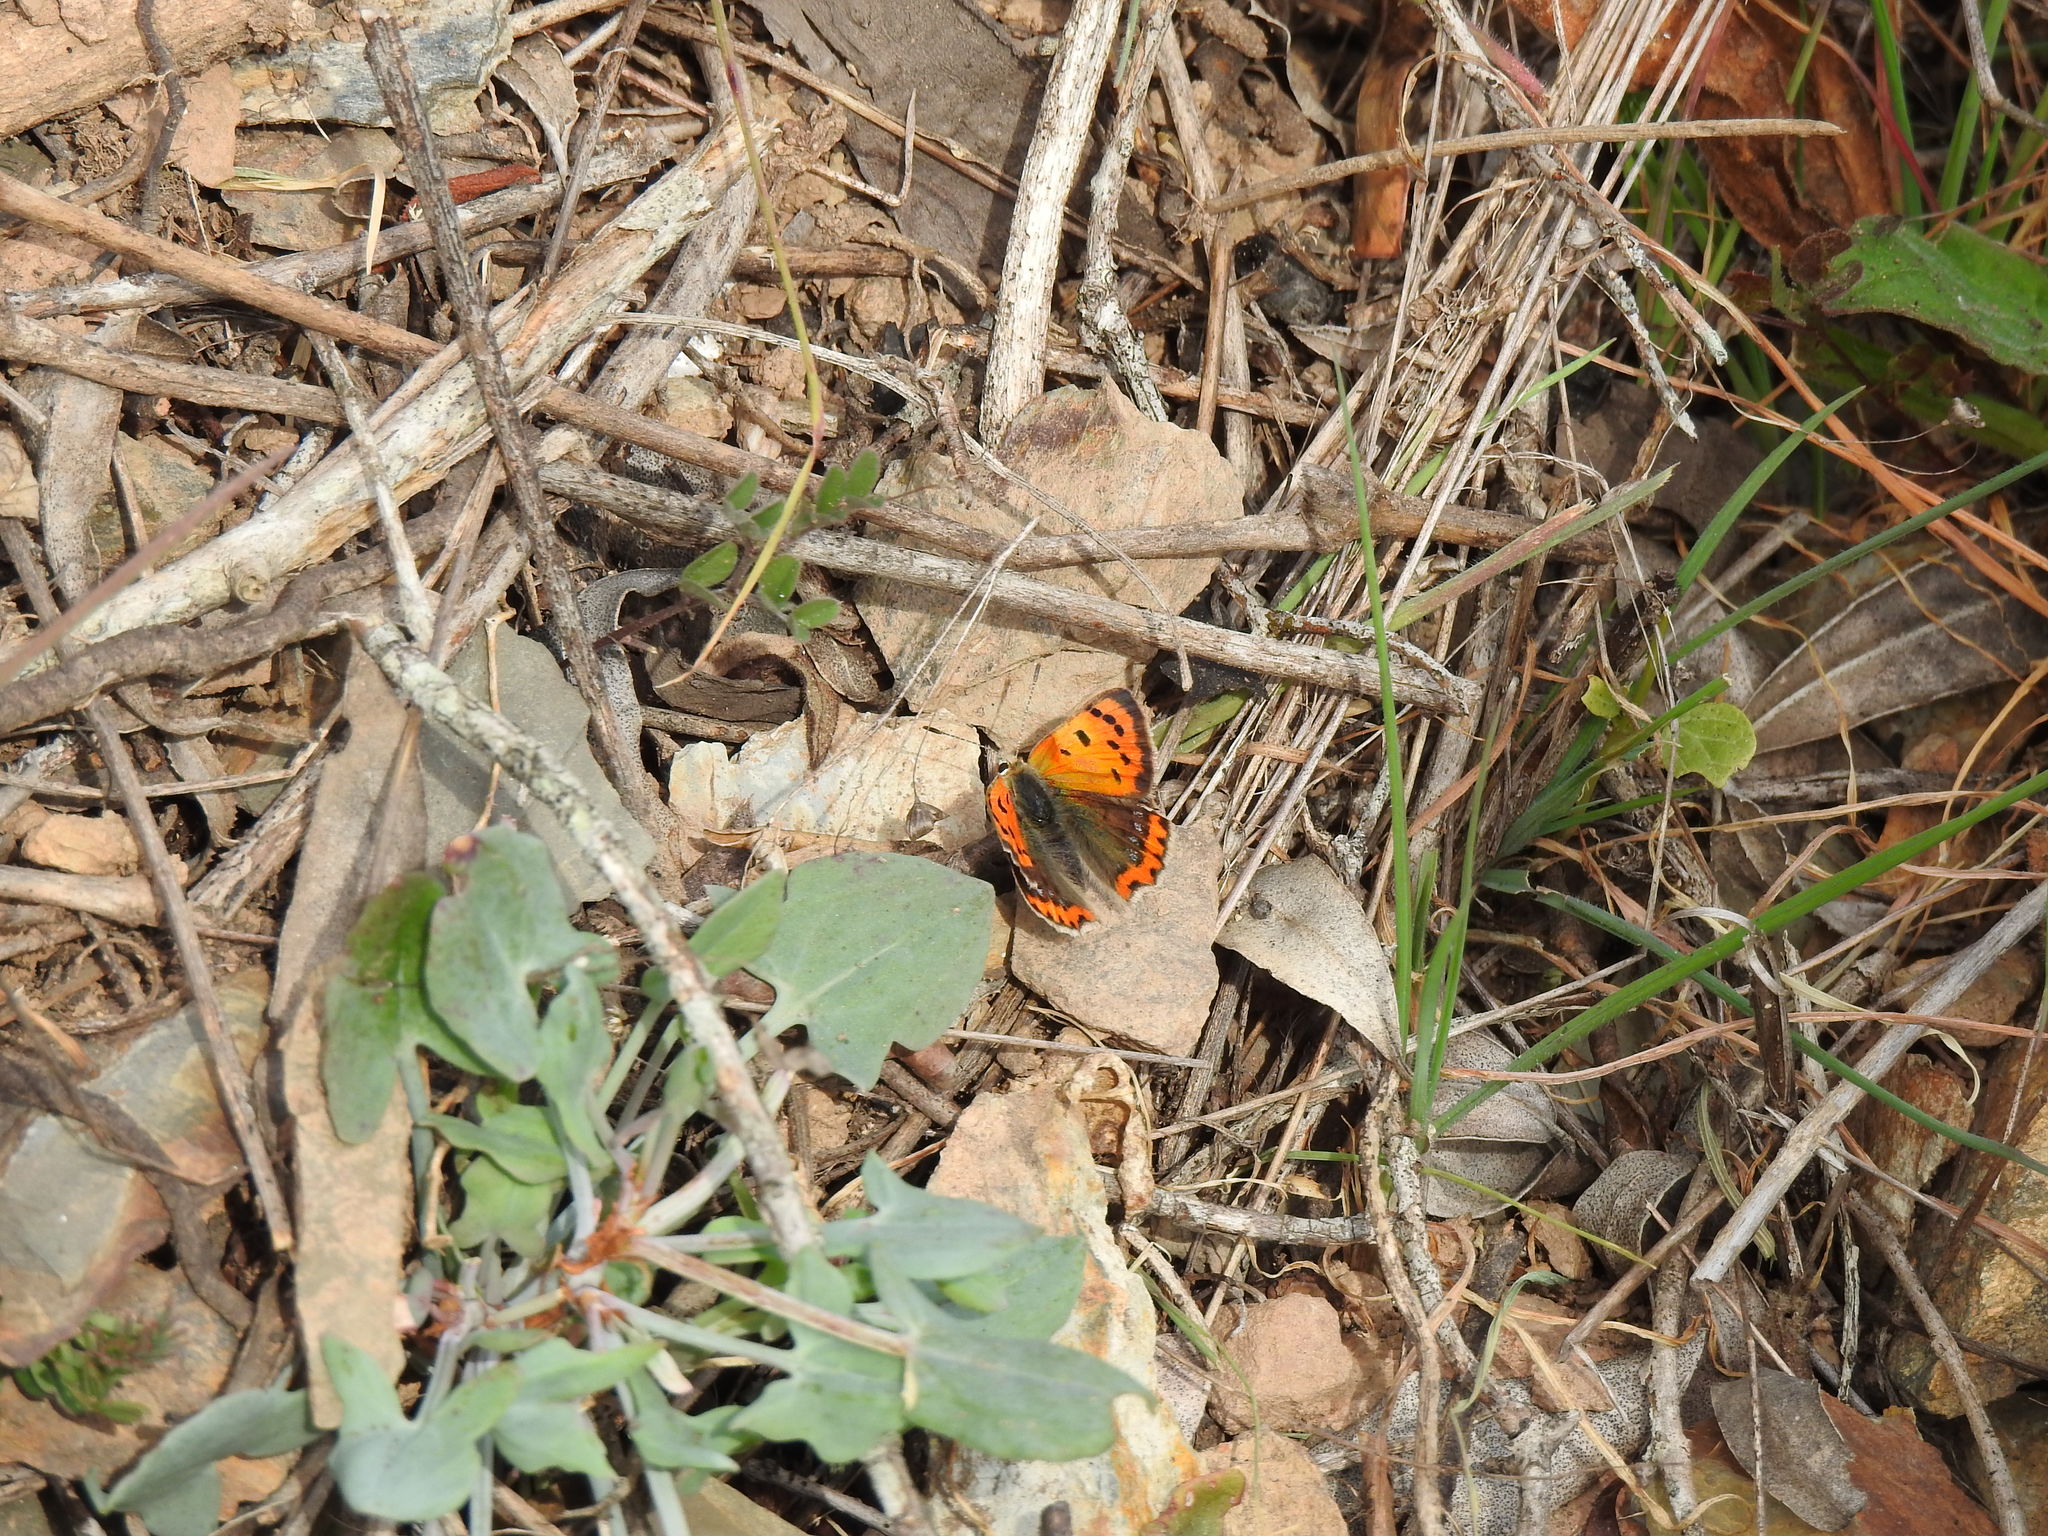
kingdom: Animalia
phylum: Arthropoda
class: Insecta
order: Lepidoptera
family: Lycaenidae
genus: Lycaena
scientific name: Lycaena phlaeas
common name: Small copper
